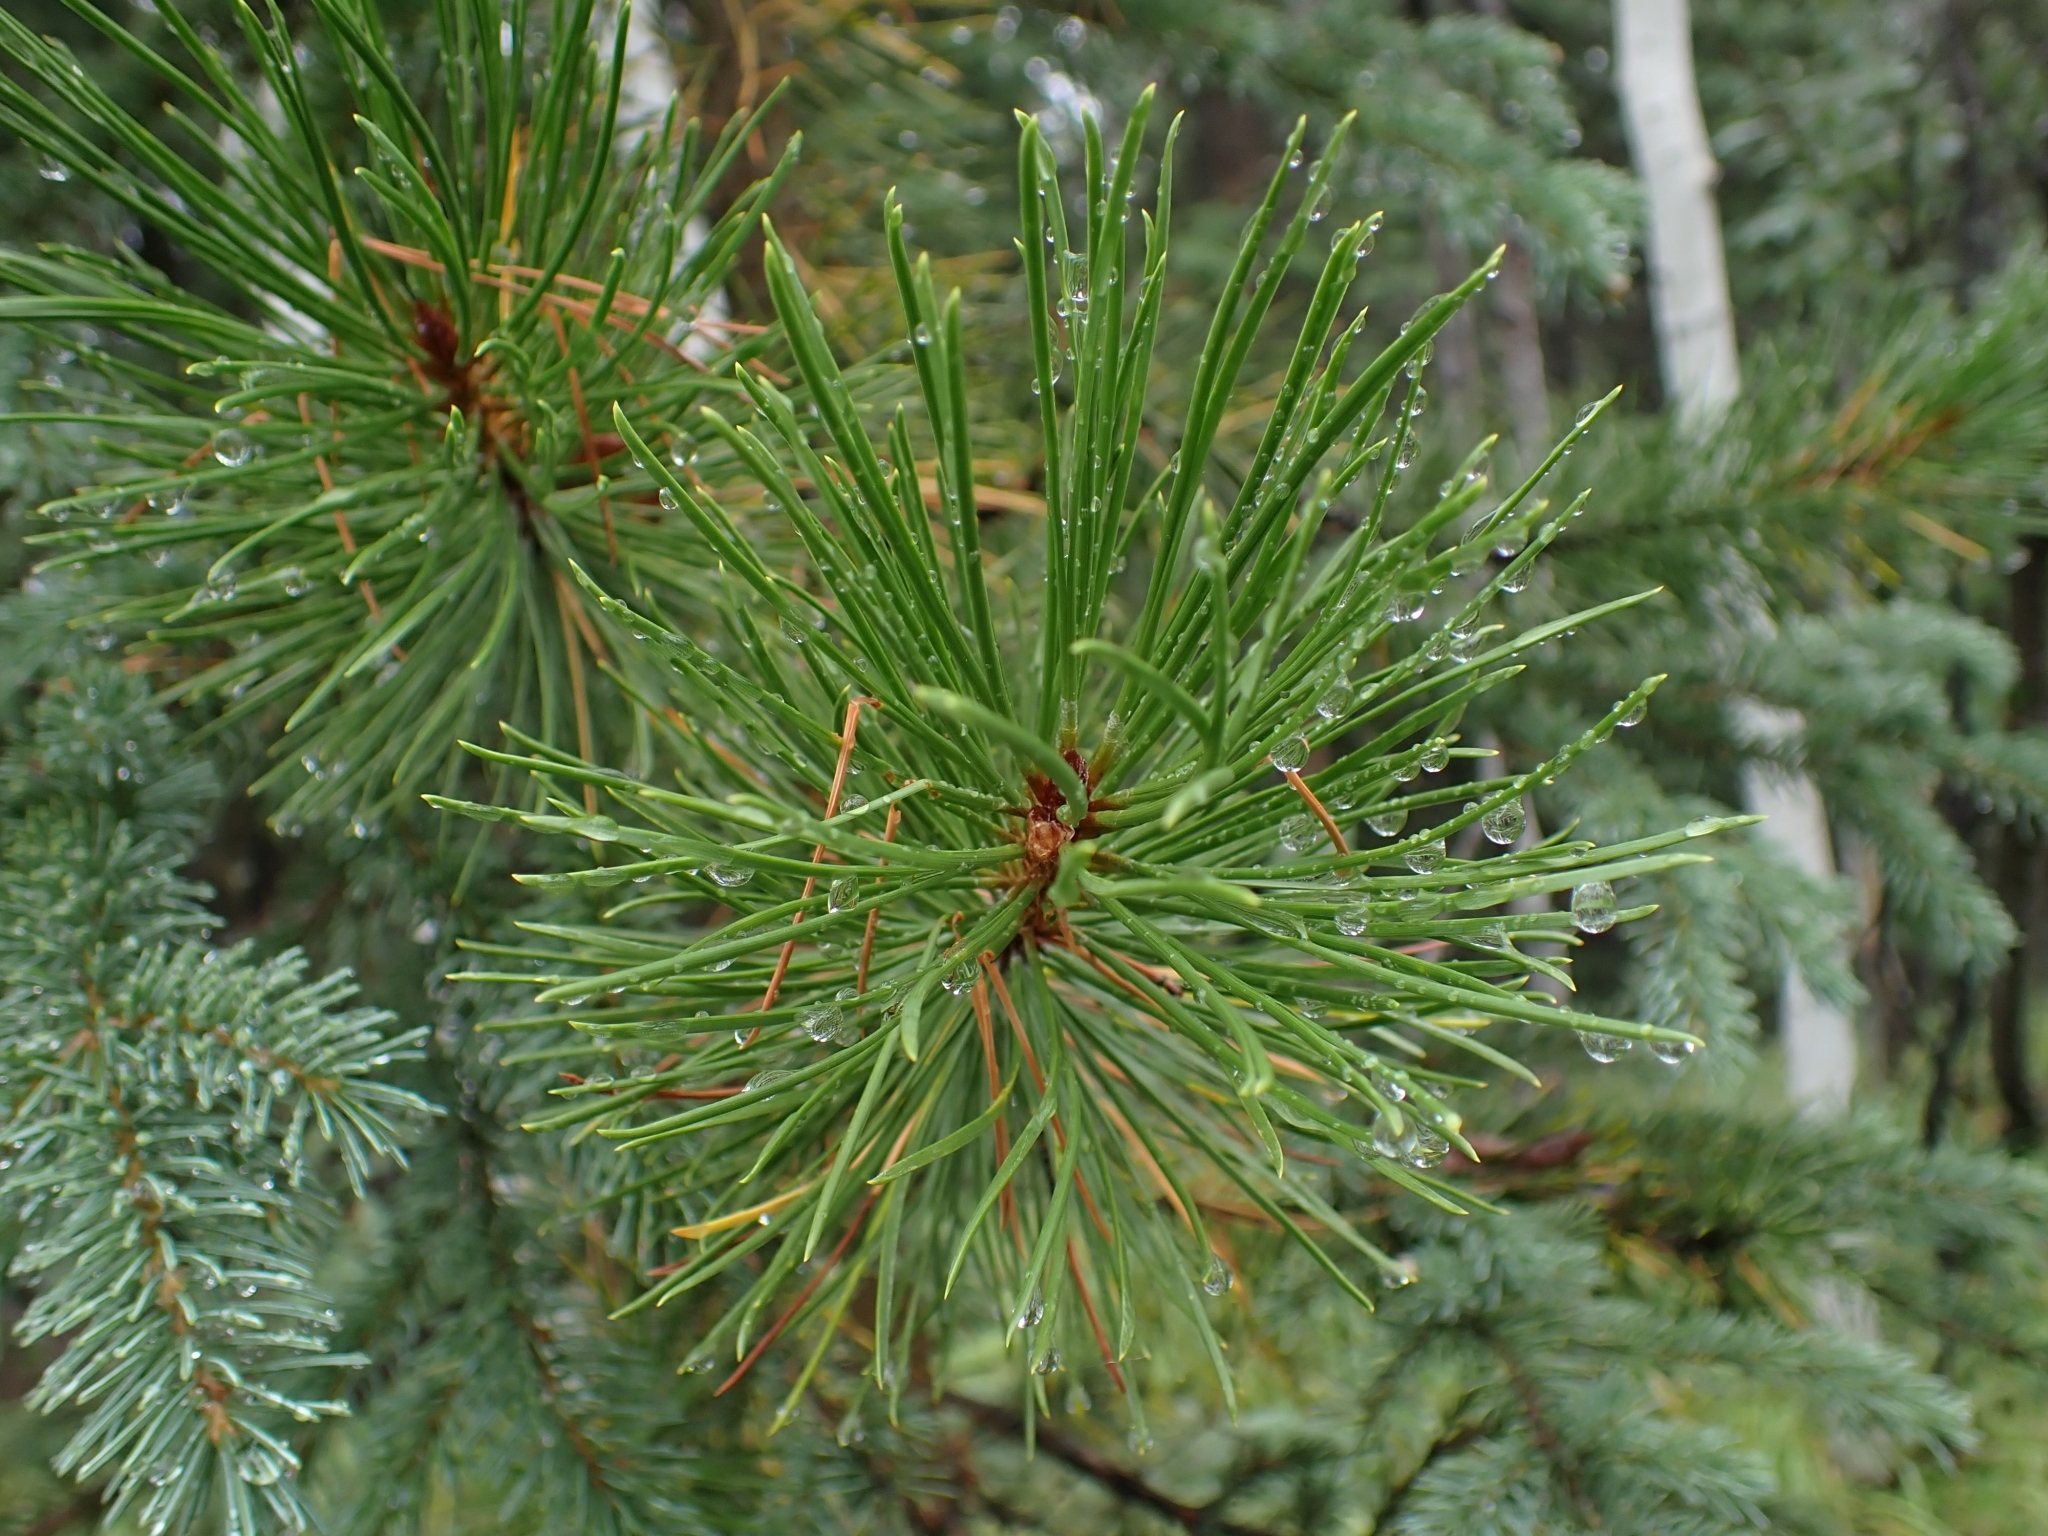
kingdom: Plantae
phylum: Tracheophyta
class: Pinopsida
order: Pinales
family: Pinaceae
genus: Pinus
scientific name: Pinus contorta
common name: Lodgepole pine
